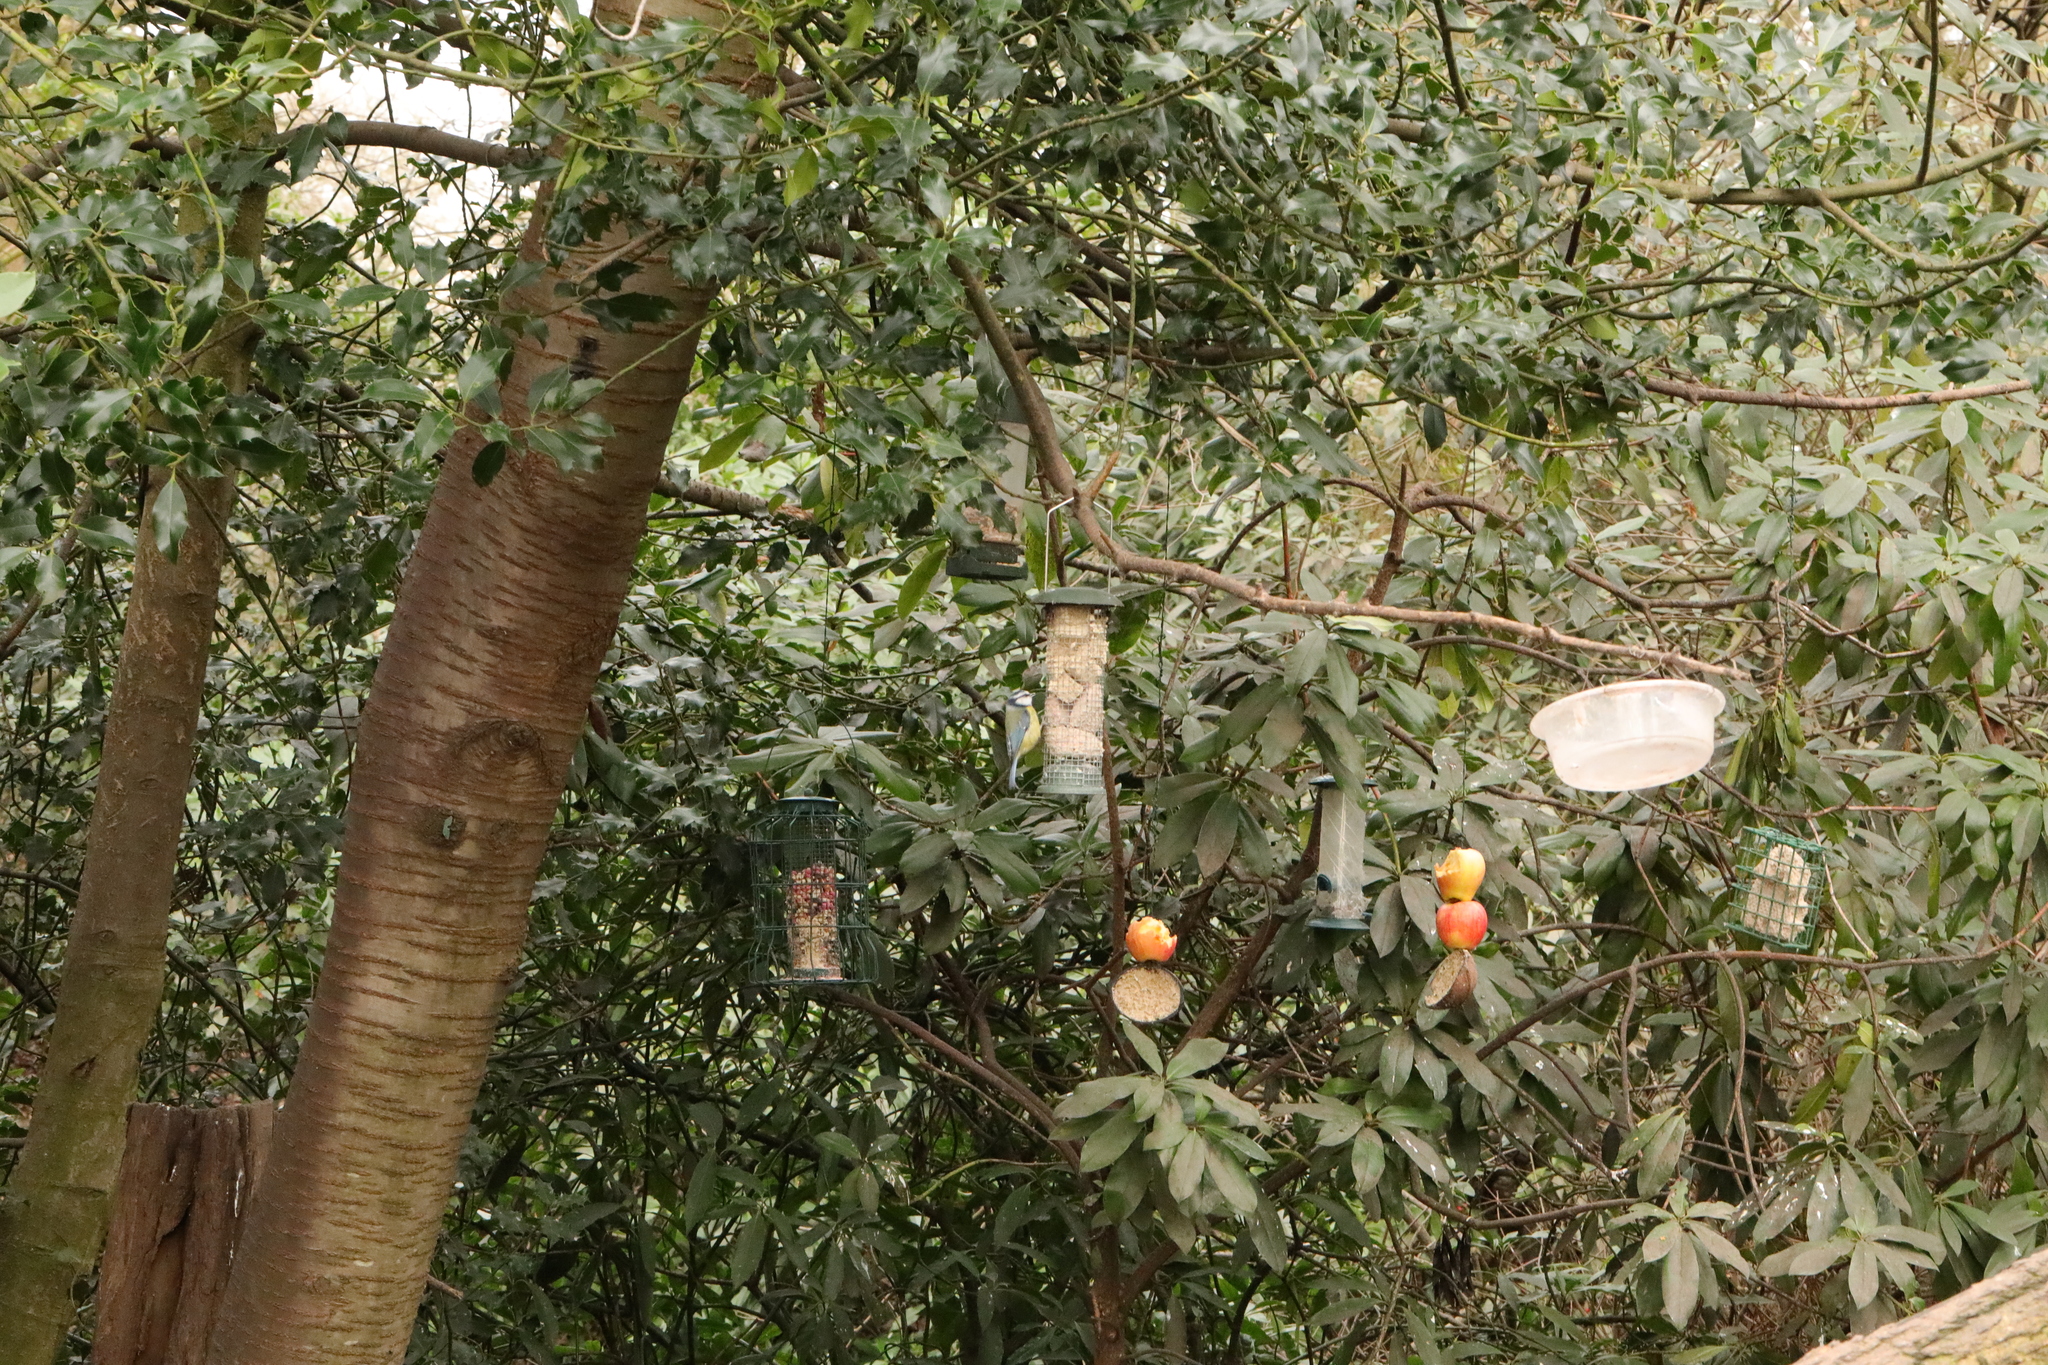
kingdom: Animalia
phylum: Chordata
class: Aves
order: Passeriformes
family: Paridae
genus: Cyanistes
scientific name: Cyanistes caeruleus
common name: Eurasian blue tit
